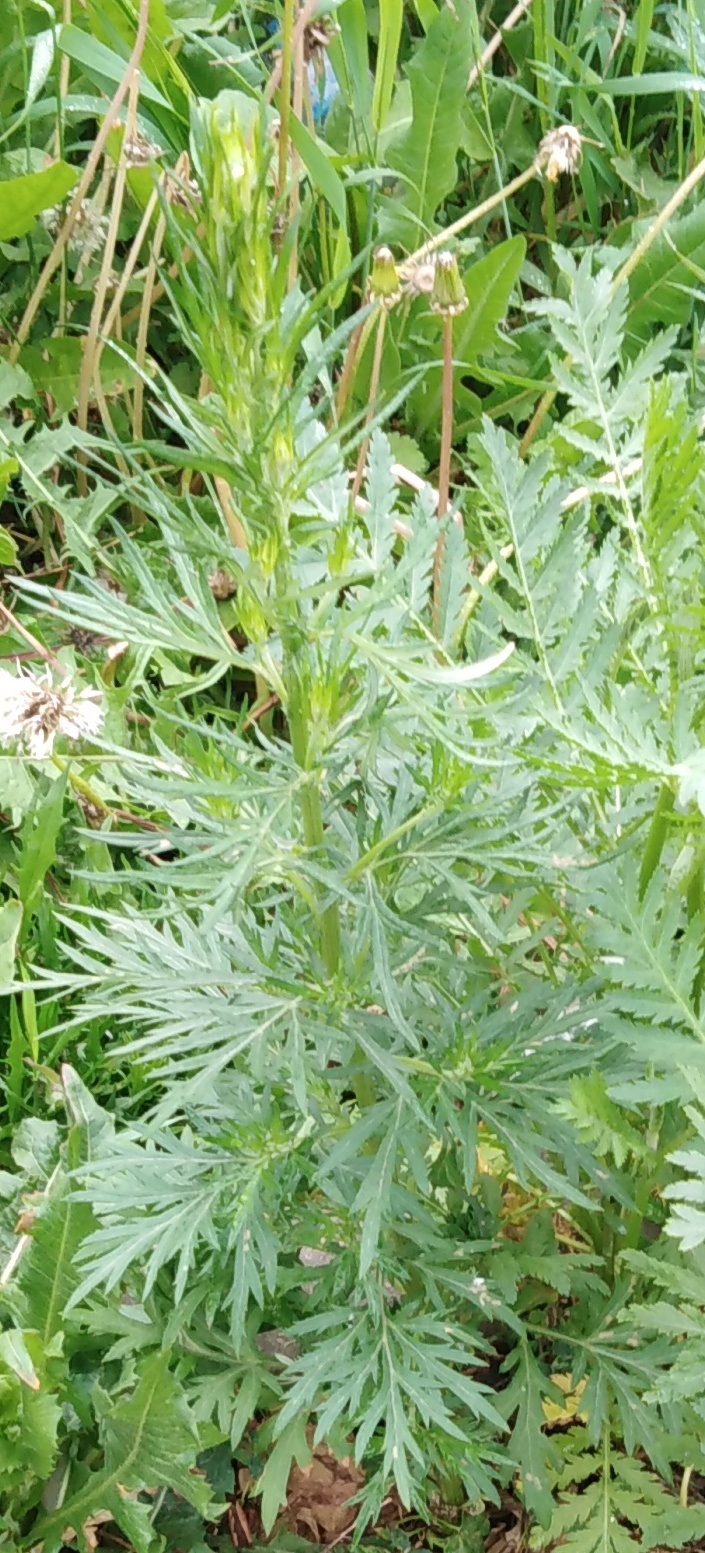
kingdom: Plantae
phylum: Tracheophyta
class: Magnoliopsida
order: Asterales
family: Asteraceae
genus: Artemisia
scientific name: Artemisia vulgaris
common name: Mugwort
